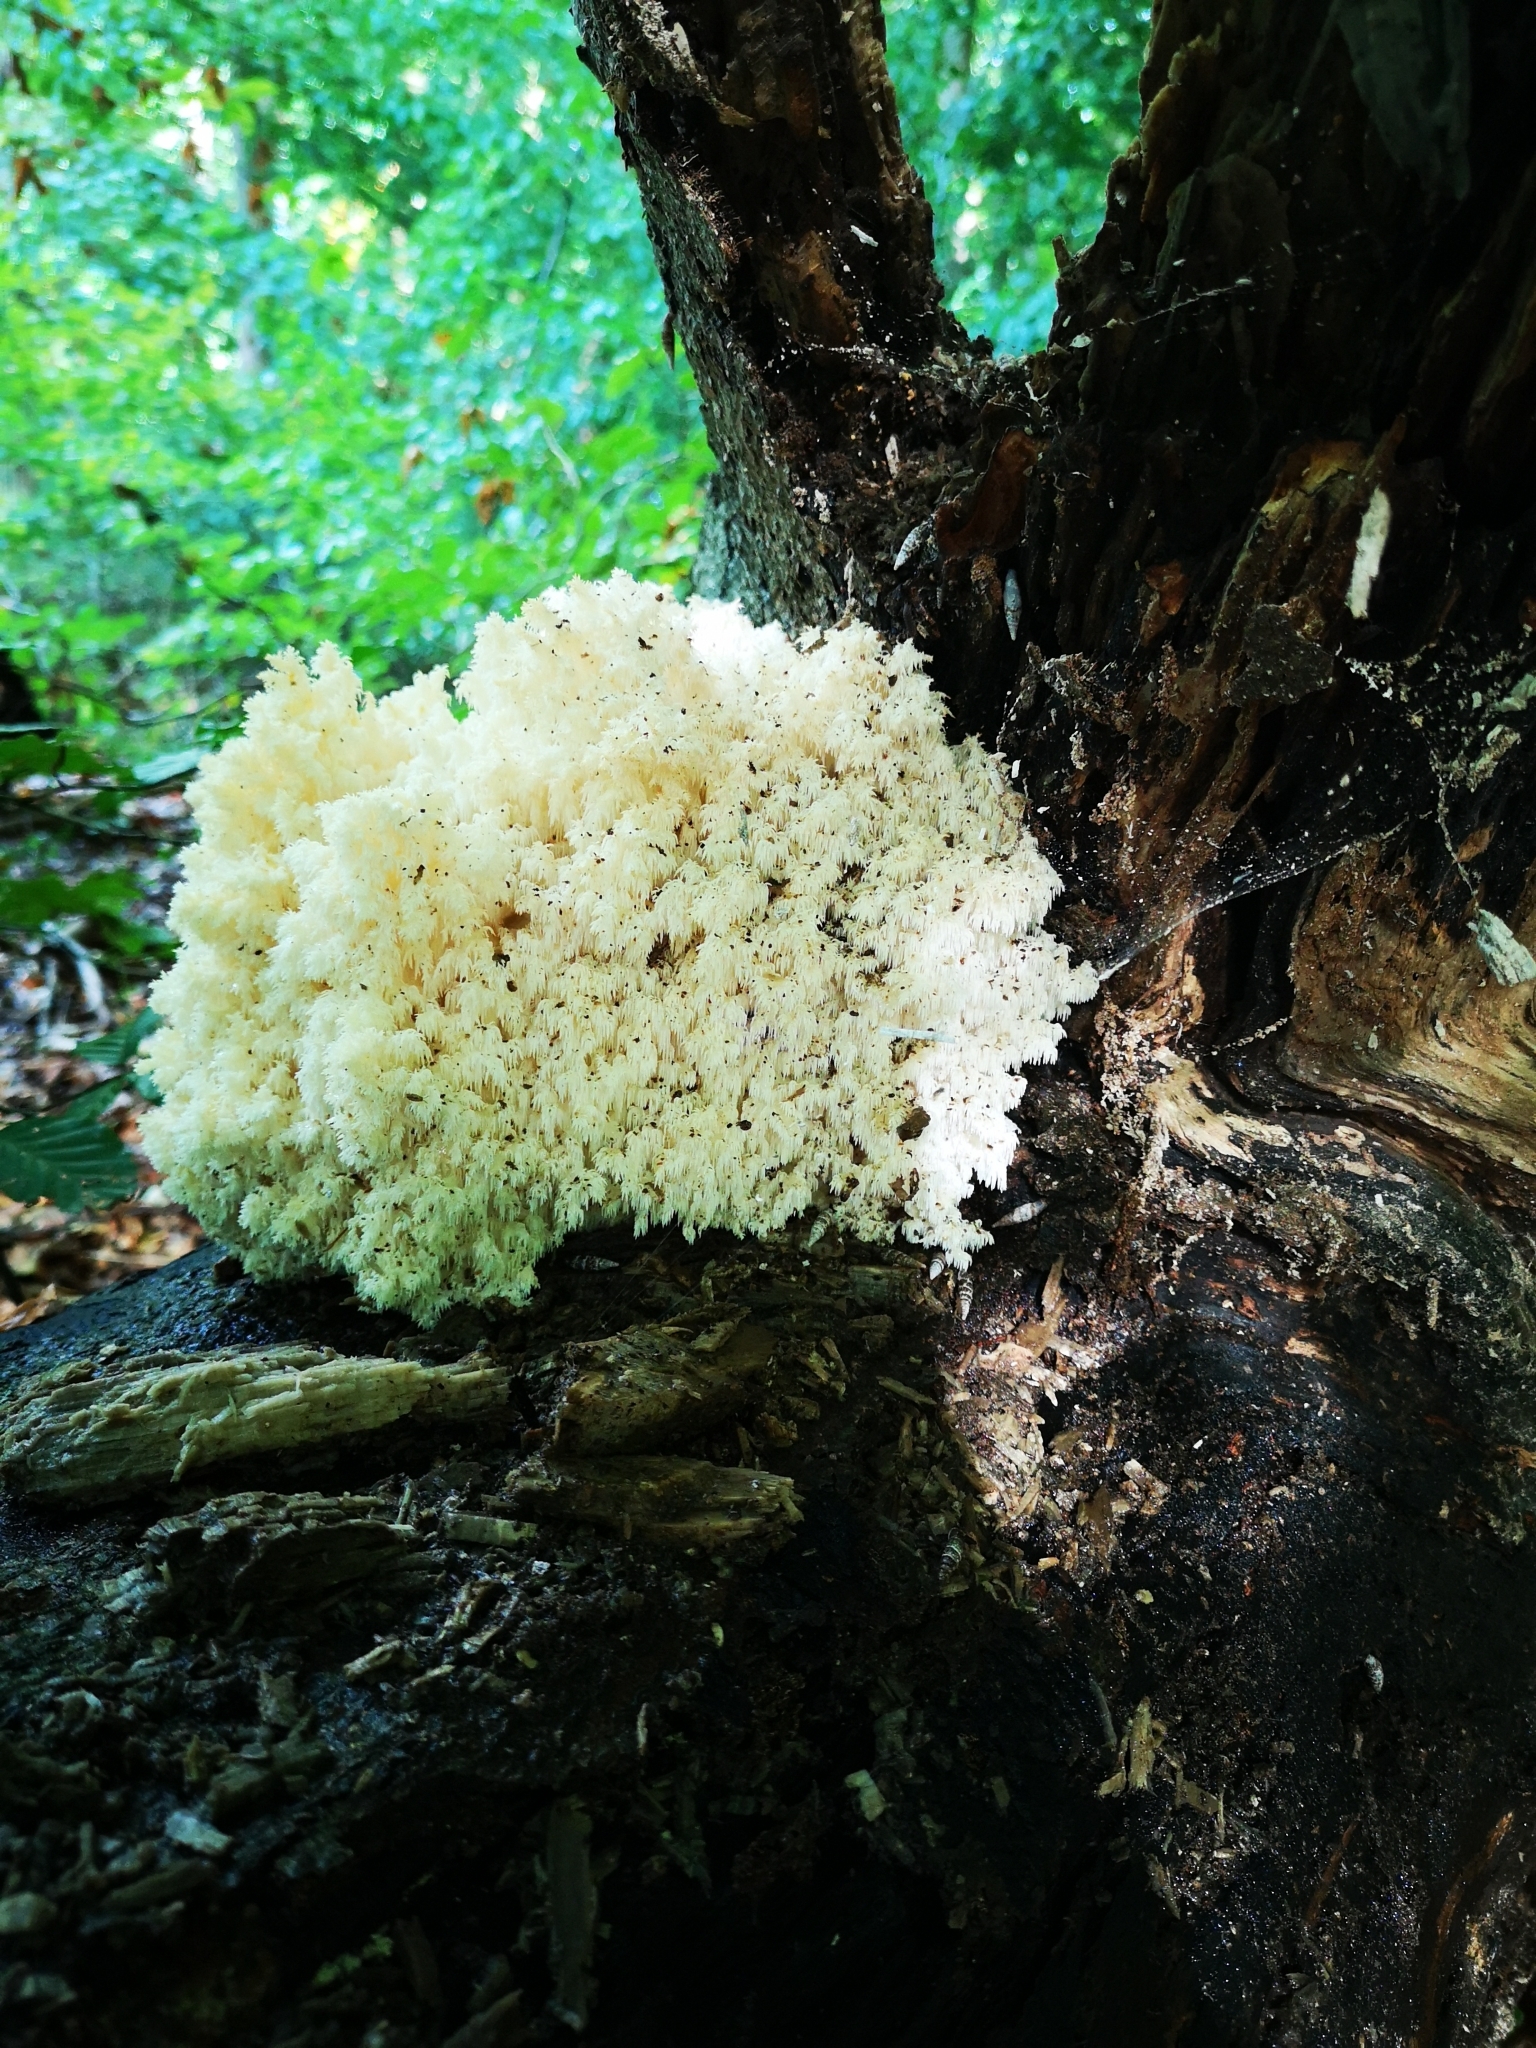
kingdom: Fungi
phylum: Basidiomycota
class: Agaricomycetes
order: Russulales
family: Hericiaceae
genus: Hericium
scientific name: Hericium coralloides
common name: Coral tooth
